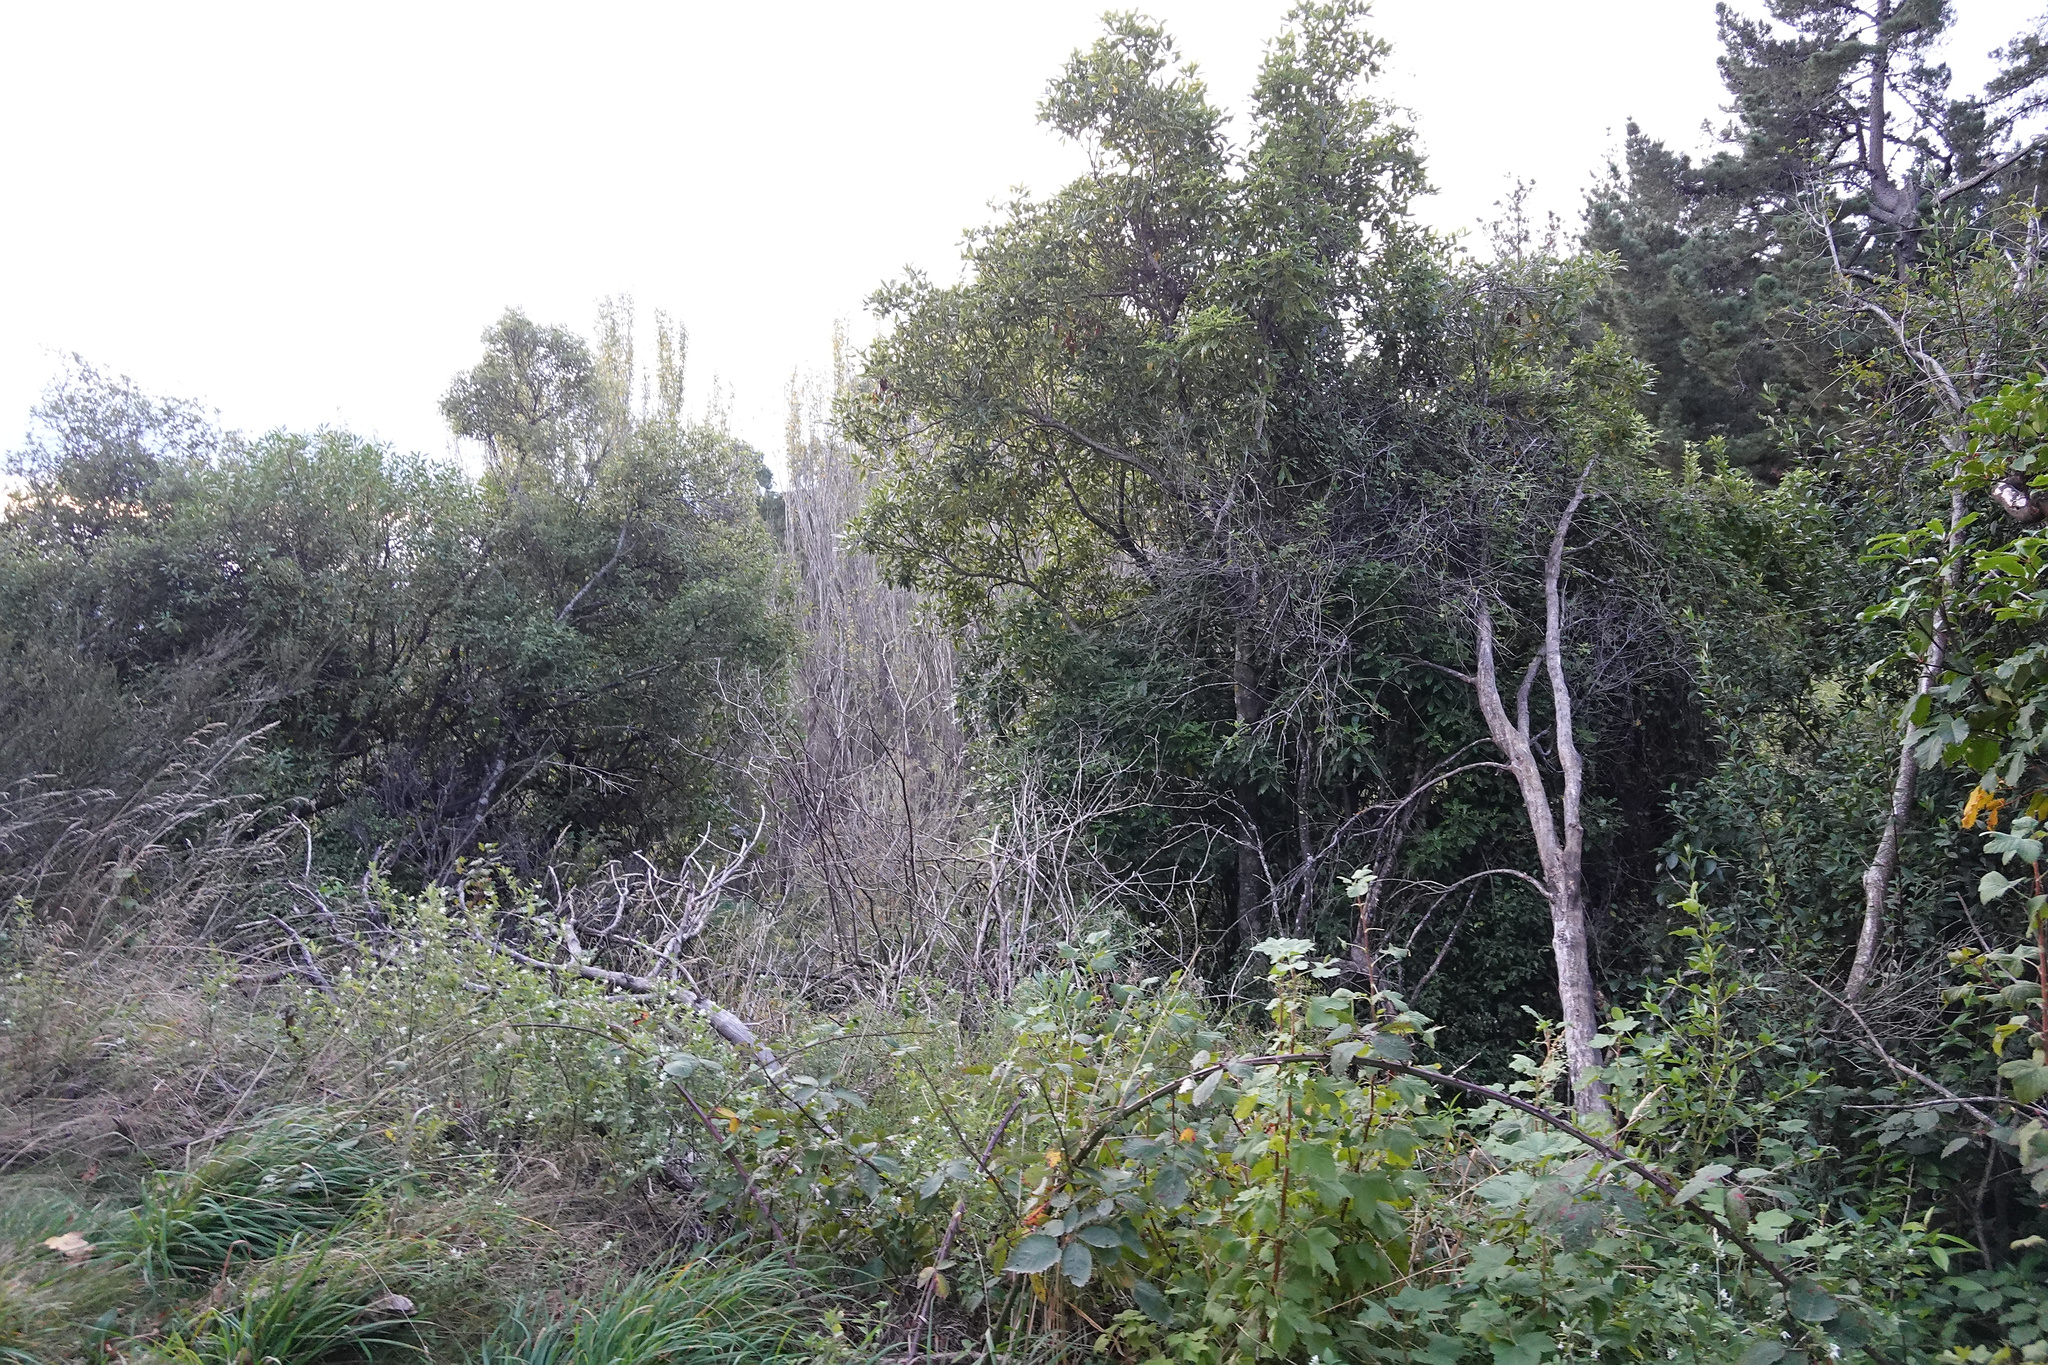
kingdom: Plantae
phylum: Tracheophyta
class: Magnoliopsida
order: Apiales
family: Pittosporaceae
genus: Pittosporum
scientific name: Pittosporum eugenioides
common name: Lemonwood
